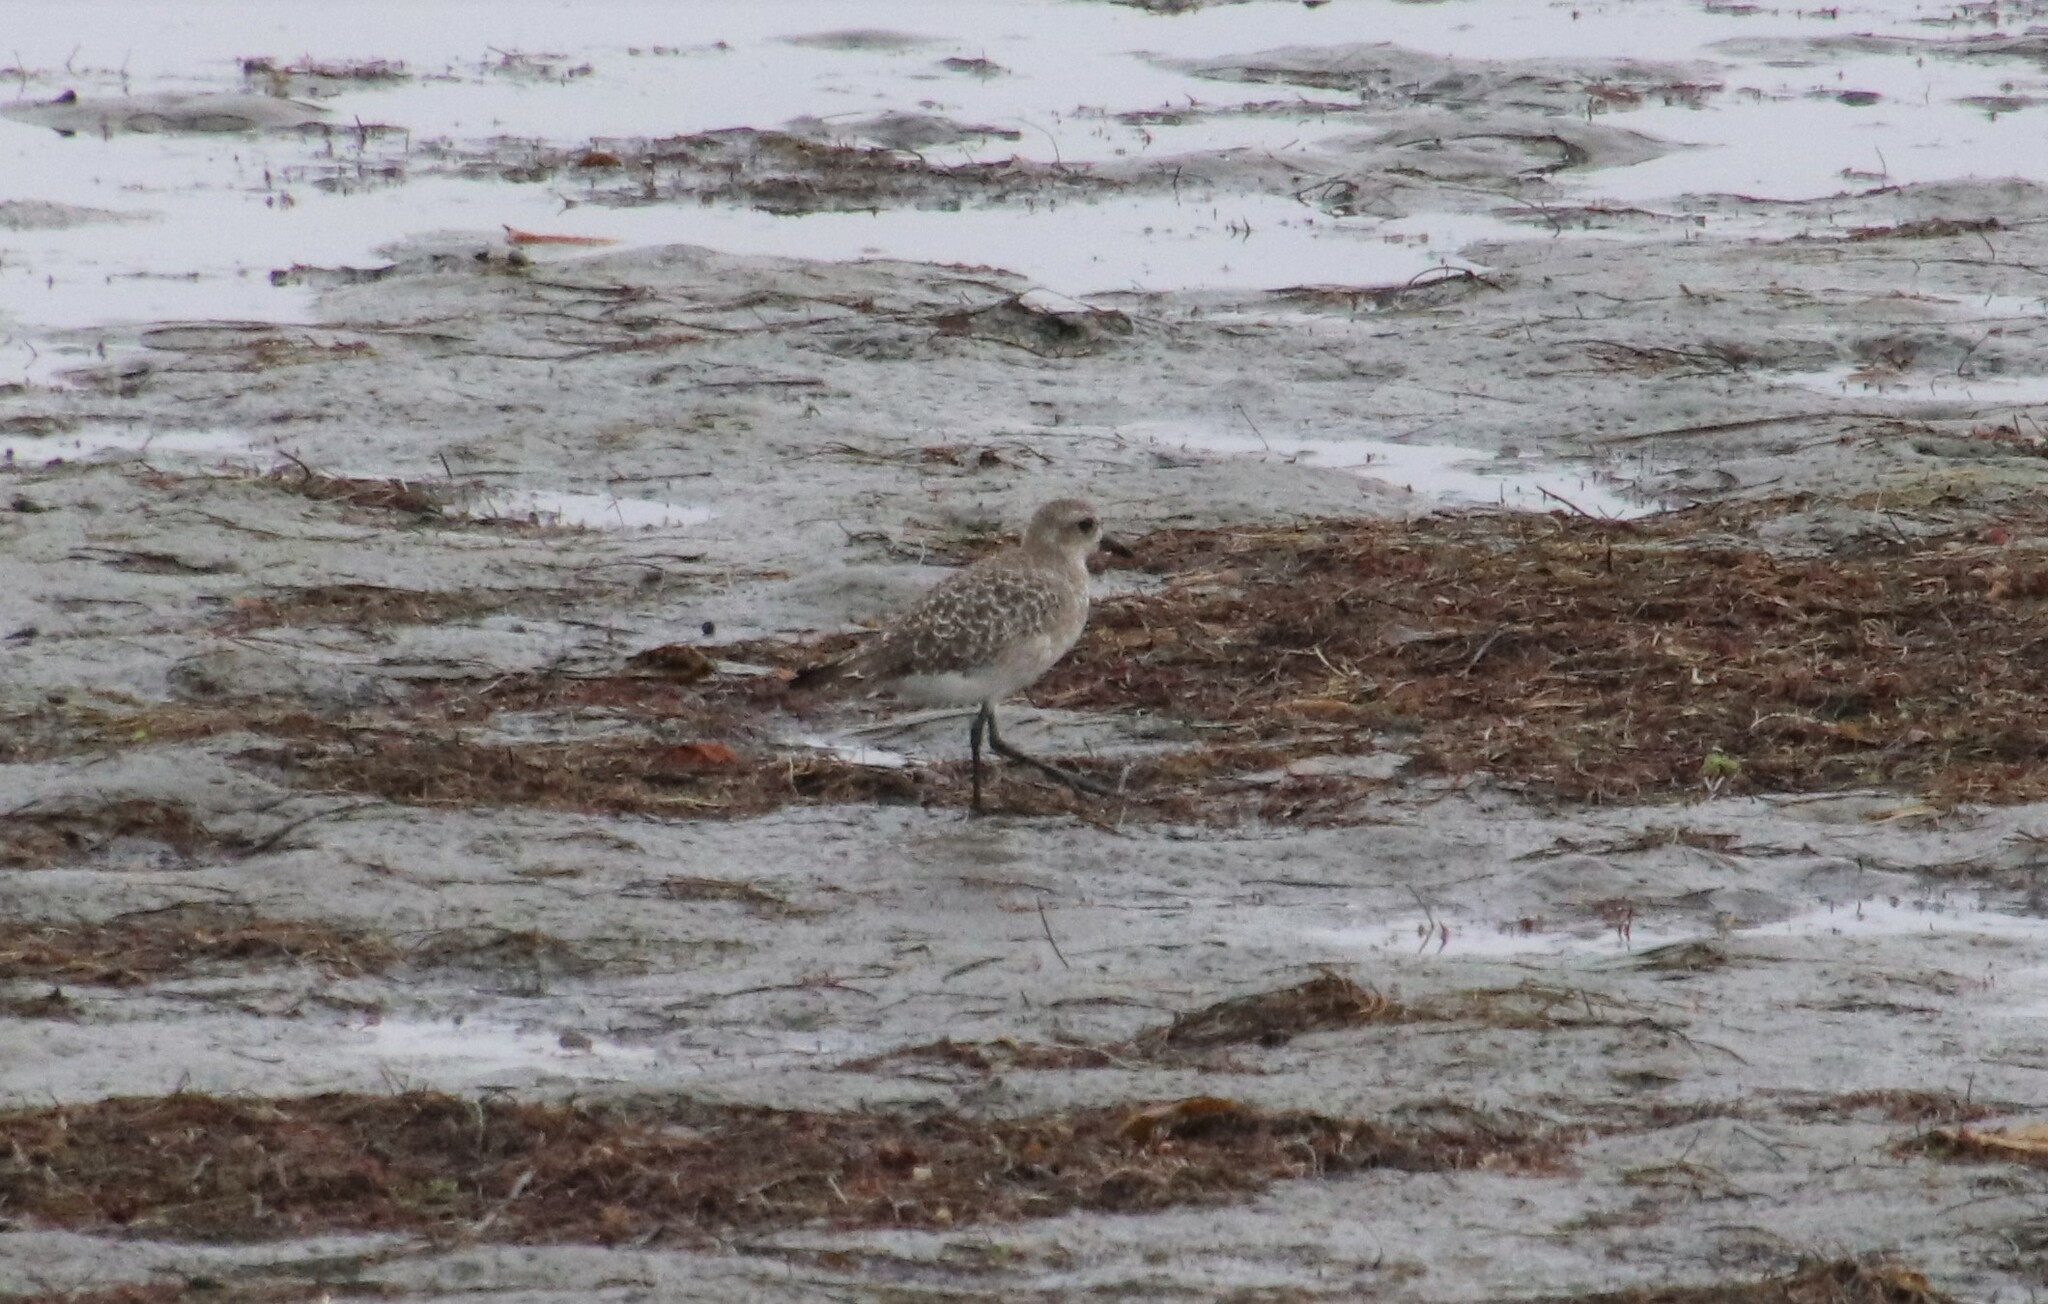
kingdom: Animalia
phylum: Chordata
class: Aves
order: Charadriiformes
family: Charadriidae
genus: Pluvialis
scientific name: Pluvialis squatarola
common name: Grey plover
